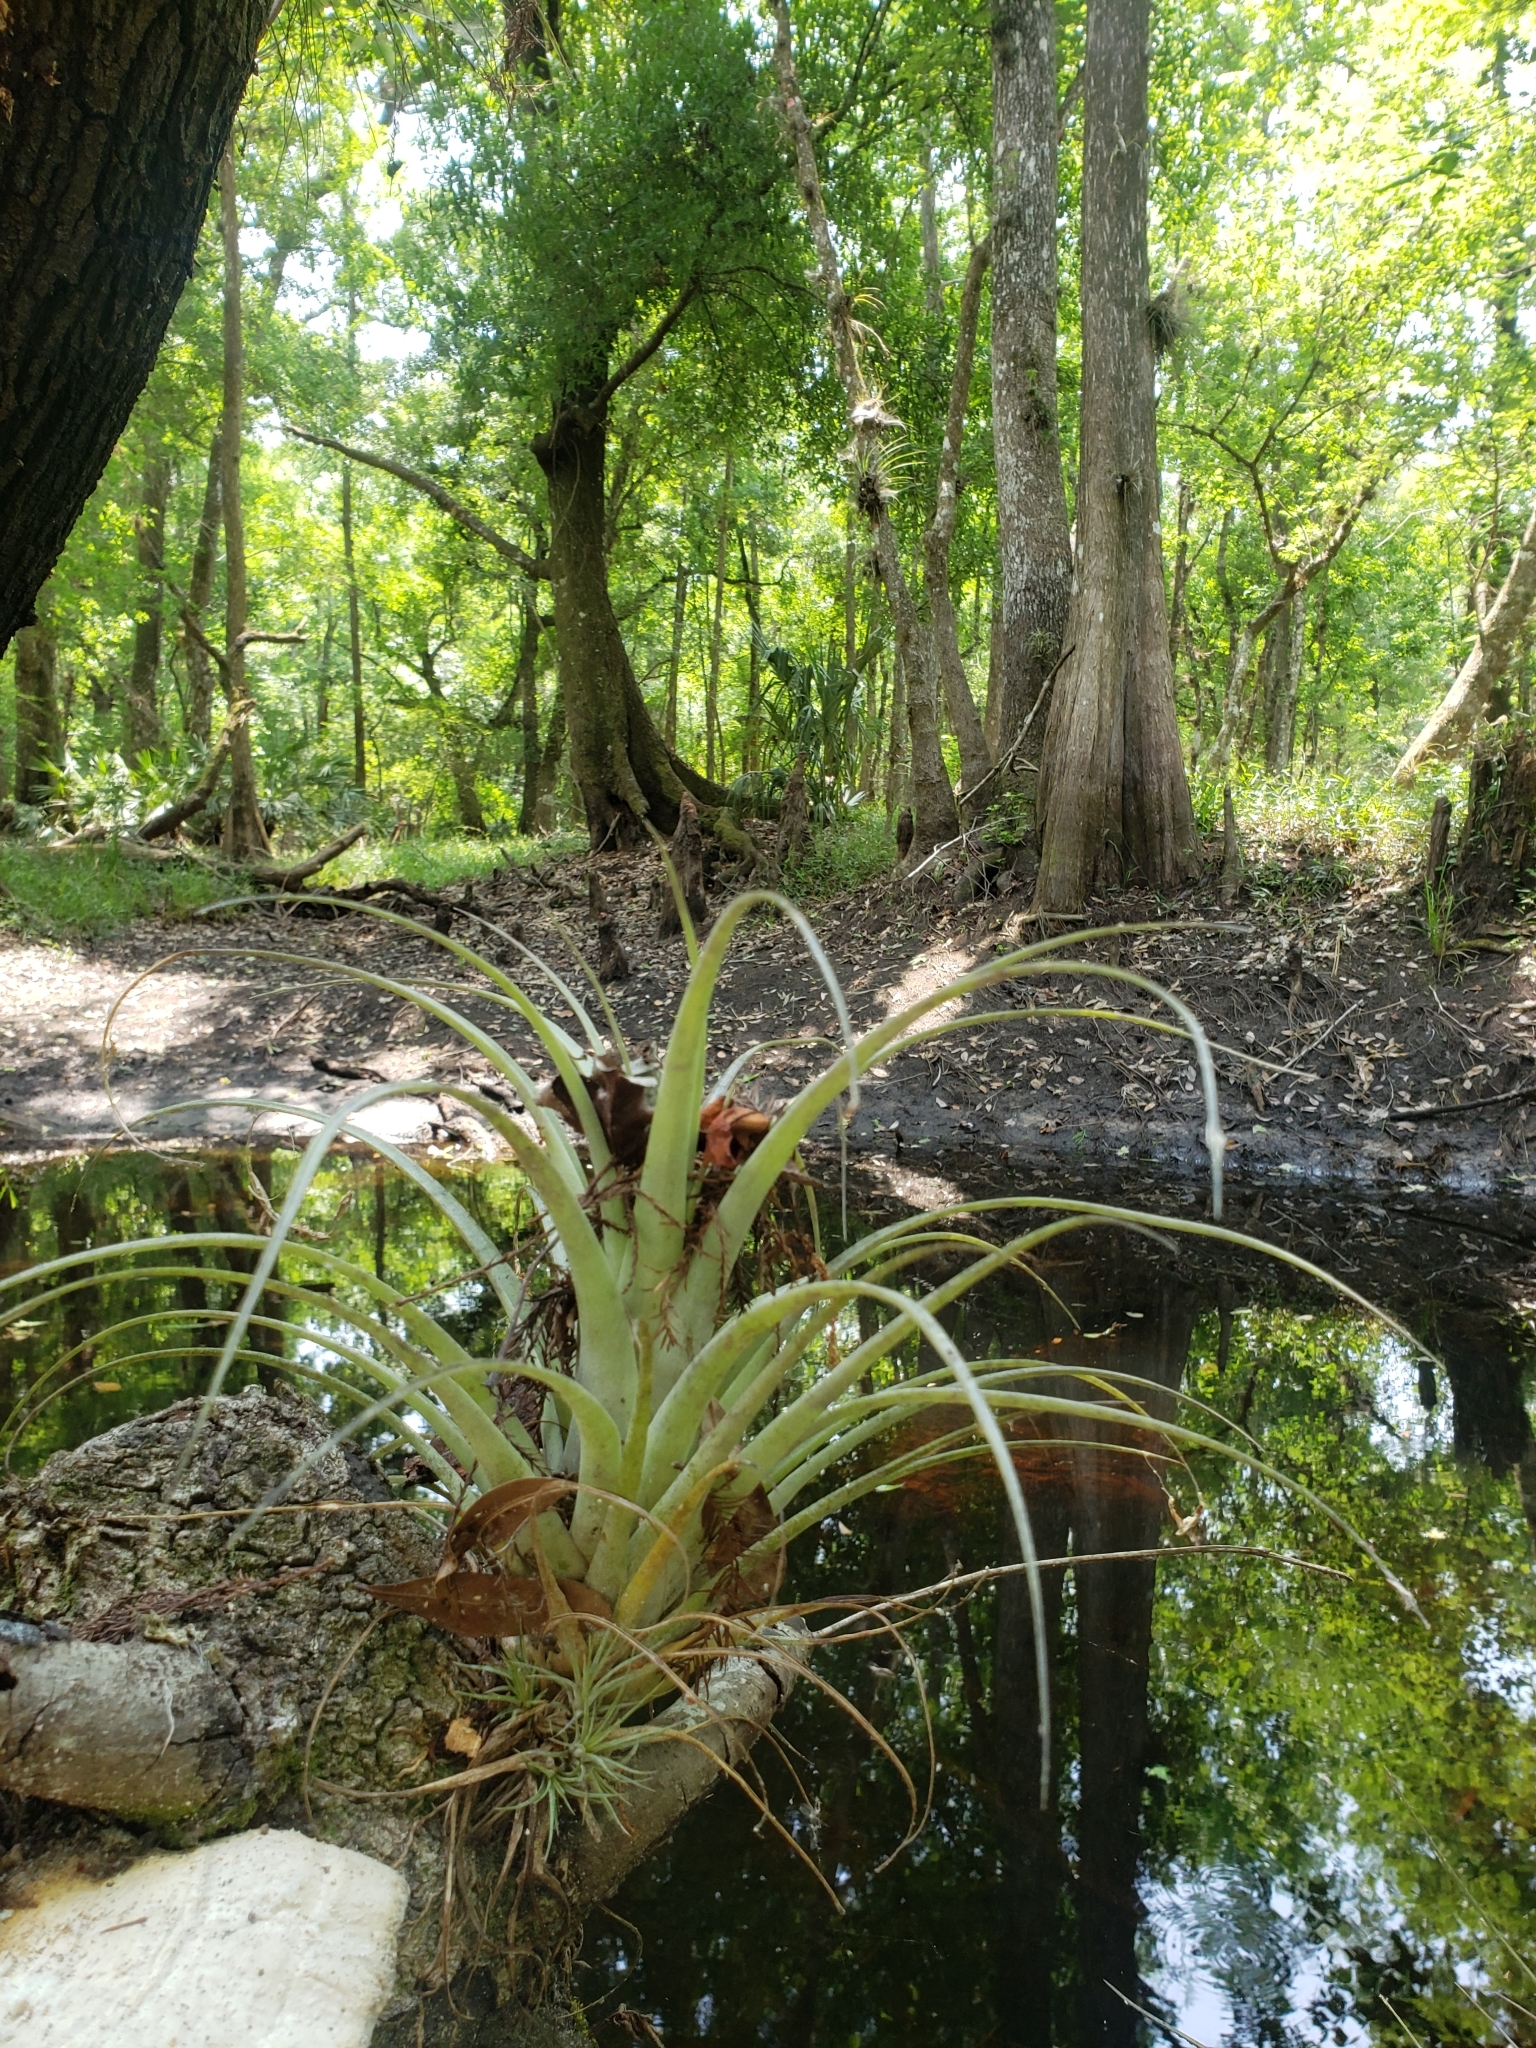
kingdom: Plantae
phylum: Tracheophyta
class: Liliopsida
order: Poales
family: Bromeliaceae
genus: Tillandsia
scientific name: Tillandsia utriculata
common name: Wild pine
